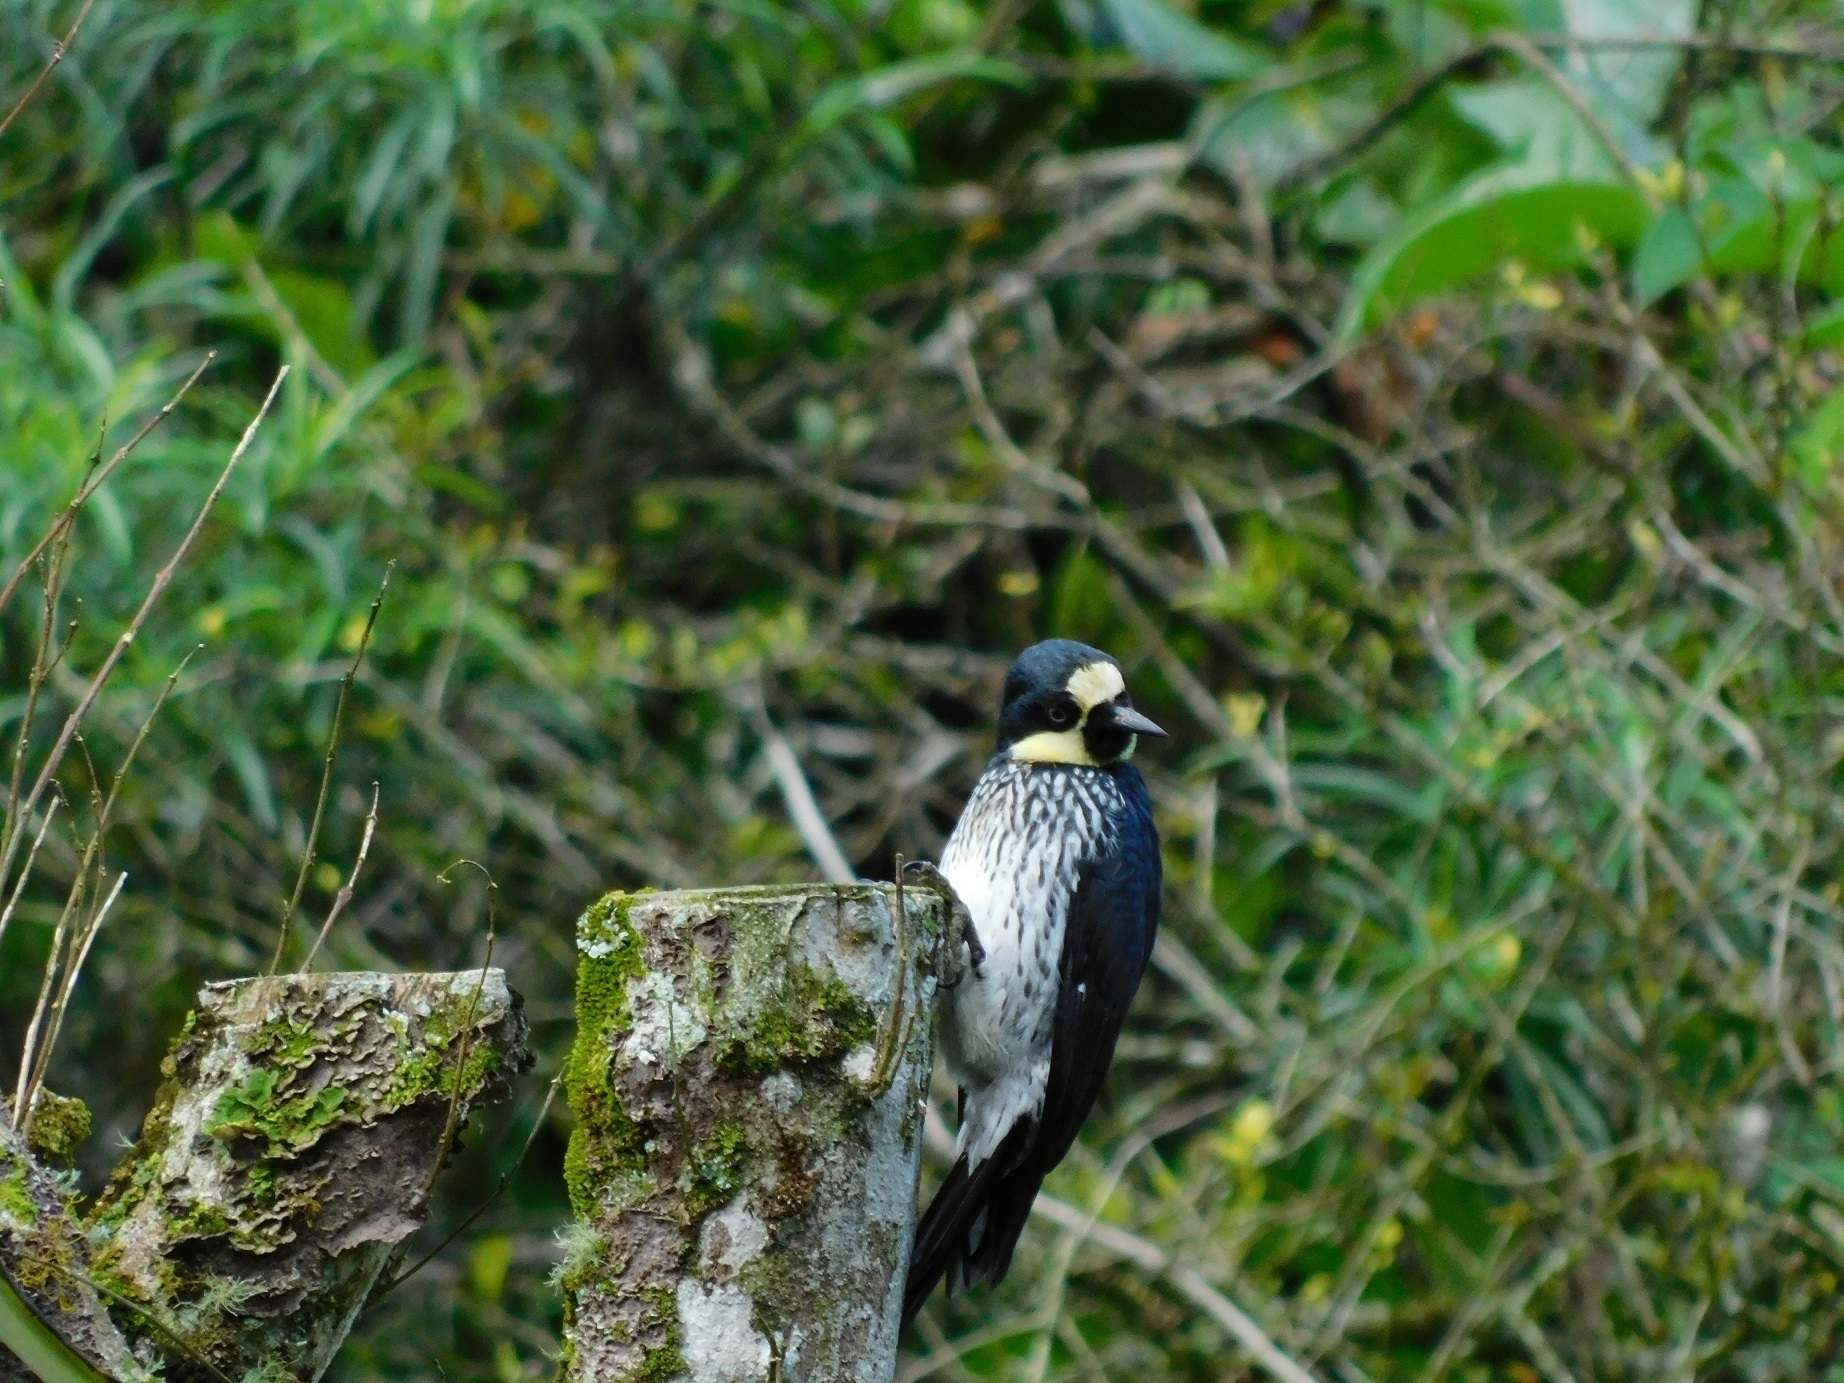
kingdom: Animalia
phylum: Chordata
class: Aves
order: Piciformes
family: Picidae
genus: Melanerpes
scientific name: Melanerpes formicivorus
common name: Acorn woodpecker
